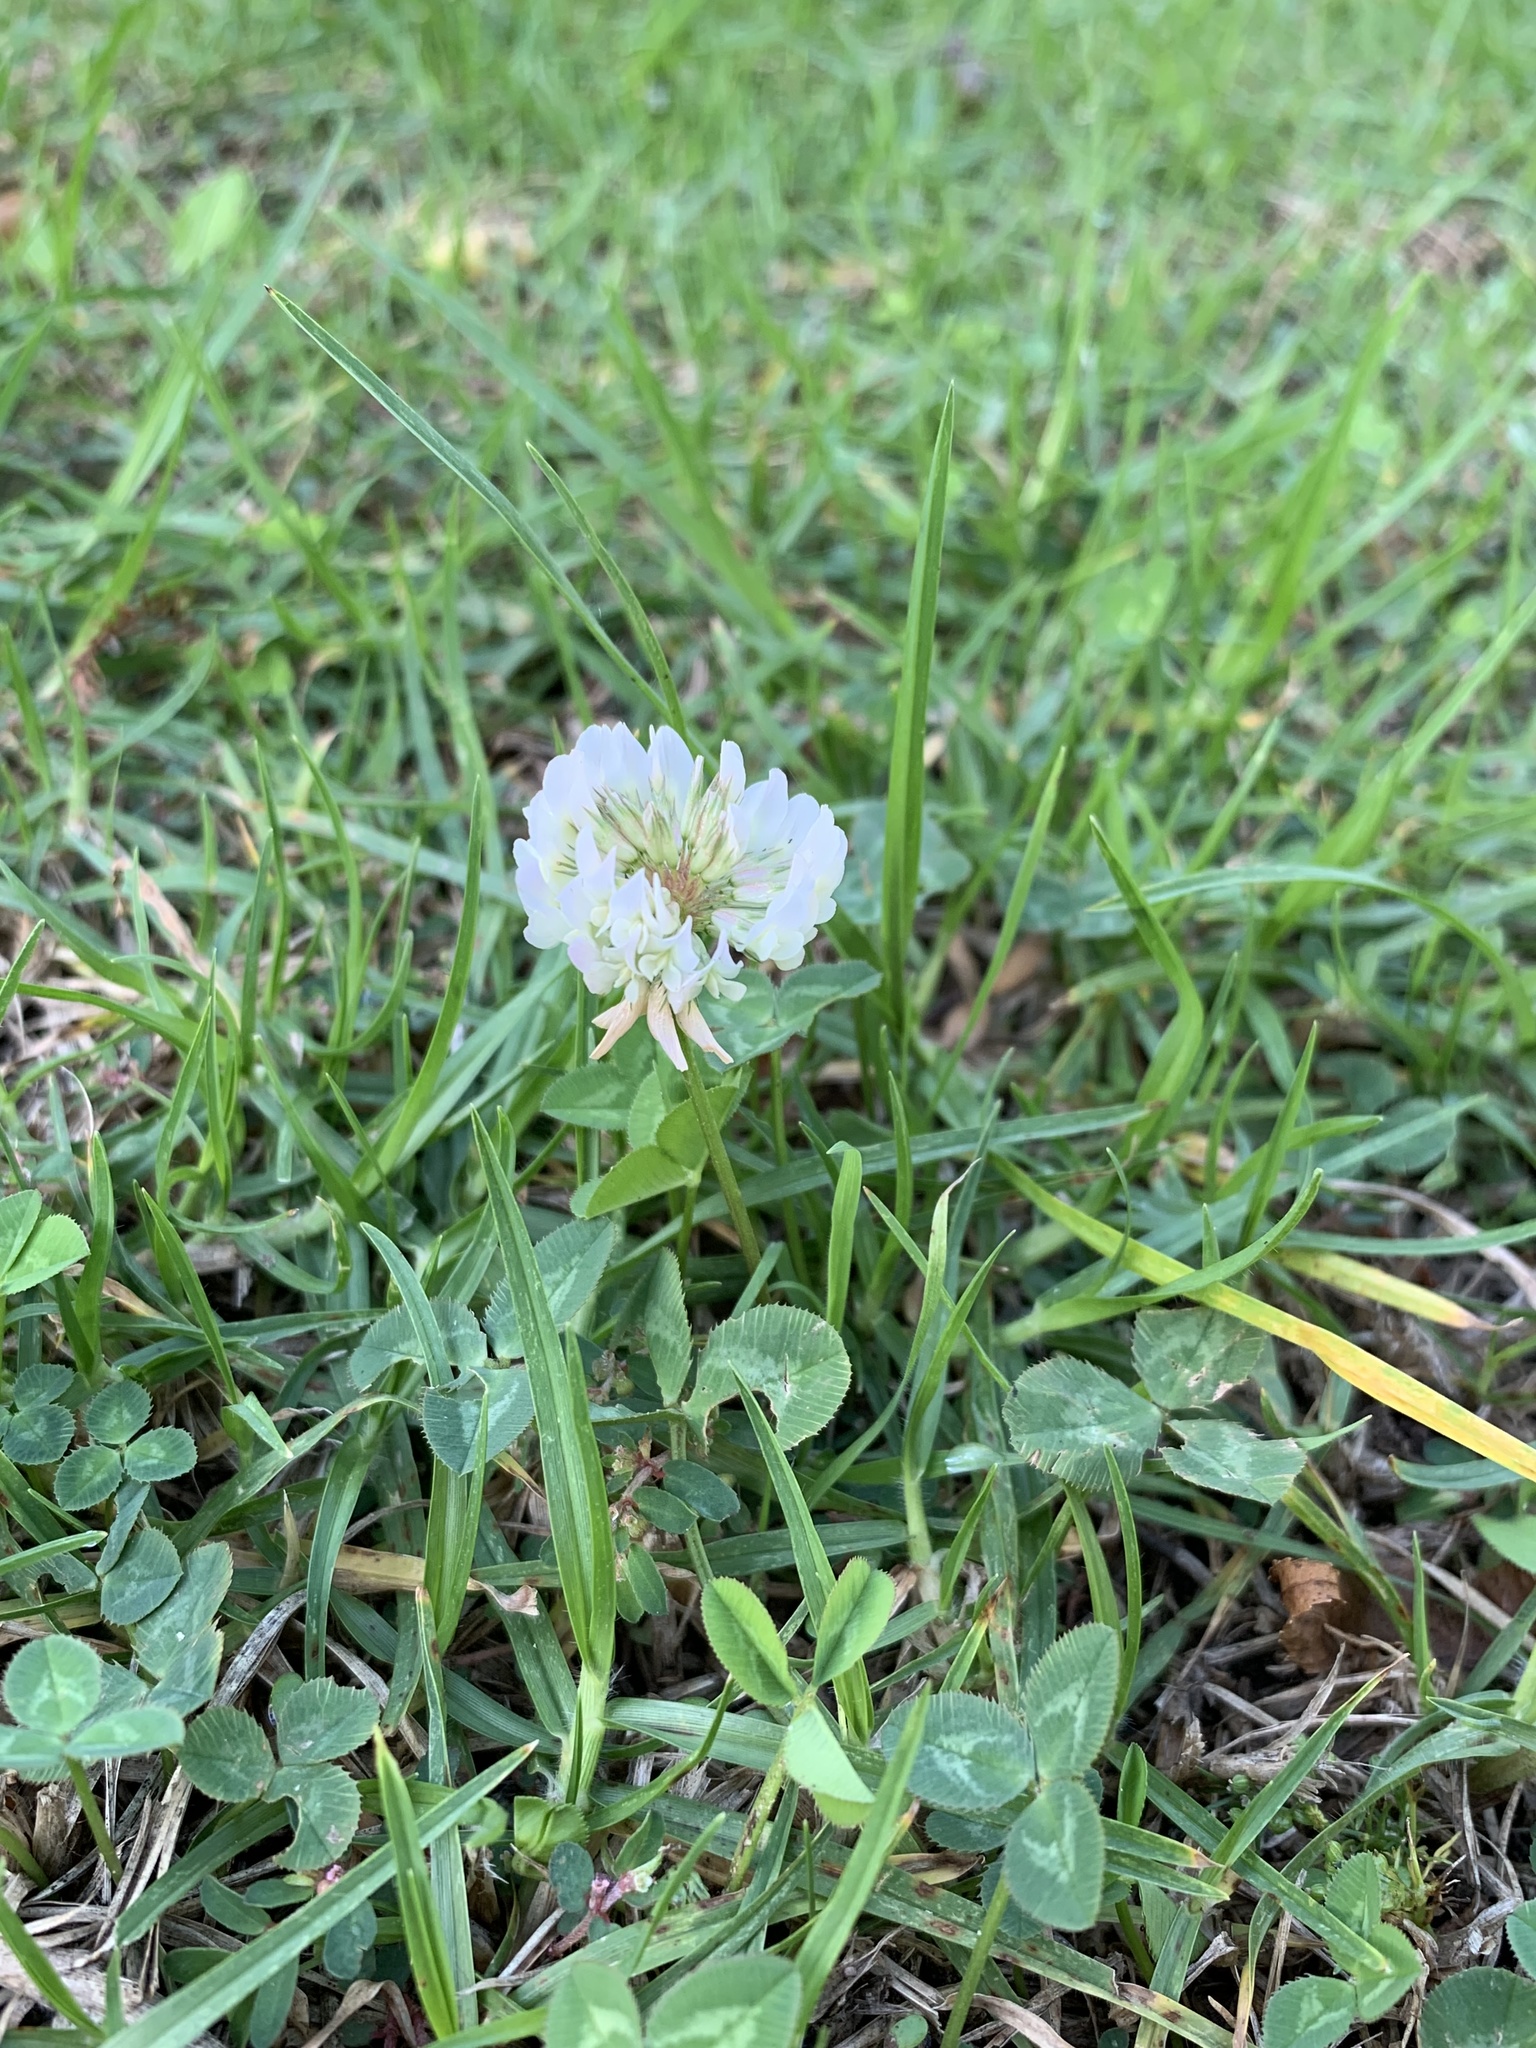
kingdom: Plantae
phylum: Tracheophyta
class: Magnoliopsida
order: Fabales
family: Fabaceae
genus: Trifolium
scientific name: Trifolium repens
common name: White clover
